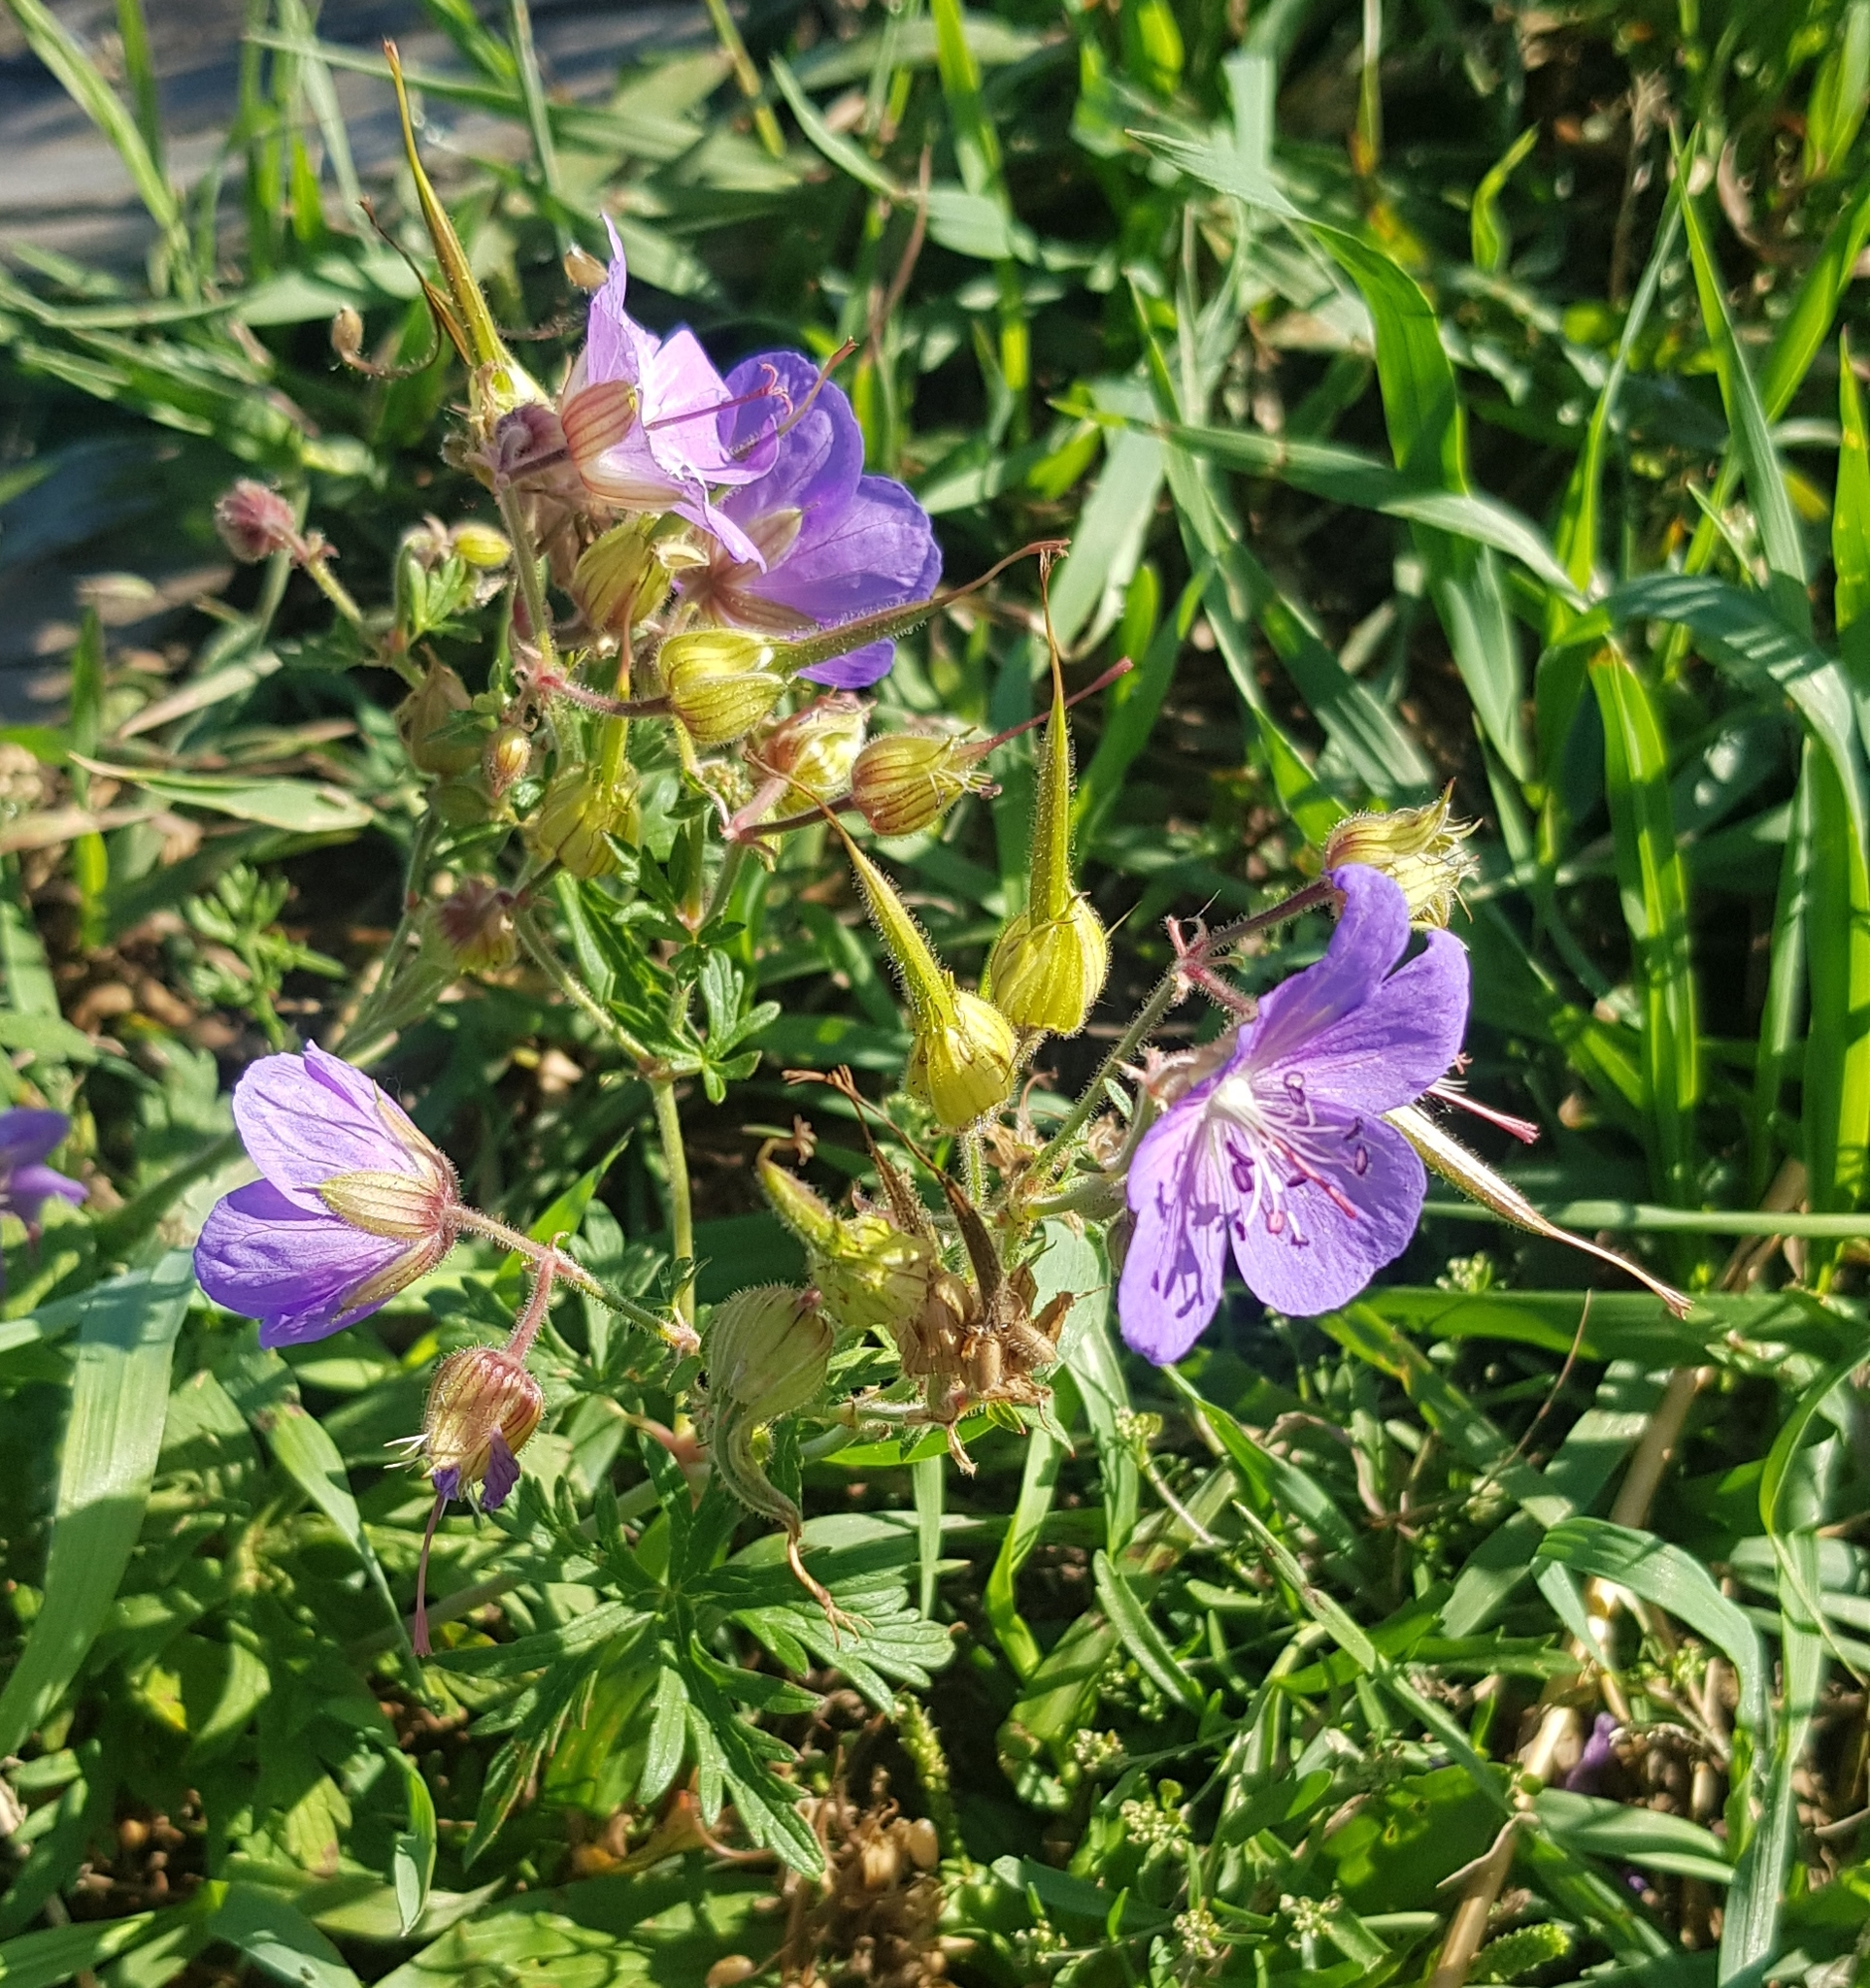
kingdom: Plantae
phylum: Tracheophyta
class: Magnoliopsida
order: Geraniales
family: Geraniaceae
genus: Geranium
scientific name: Geranium pratense
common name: Meadow crane's-bill
